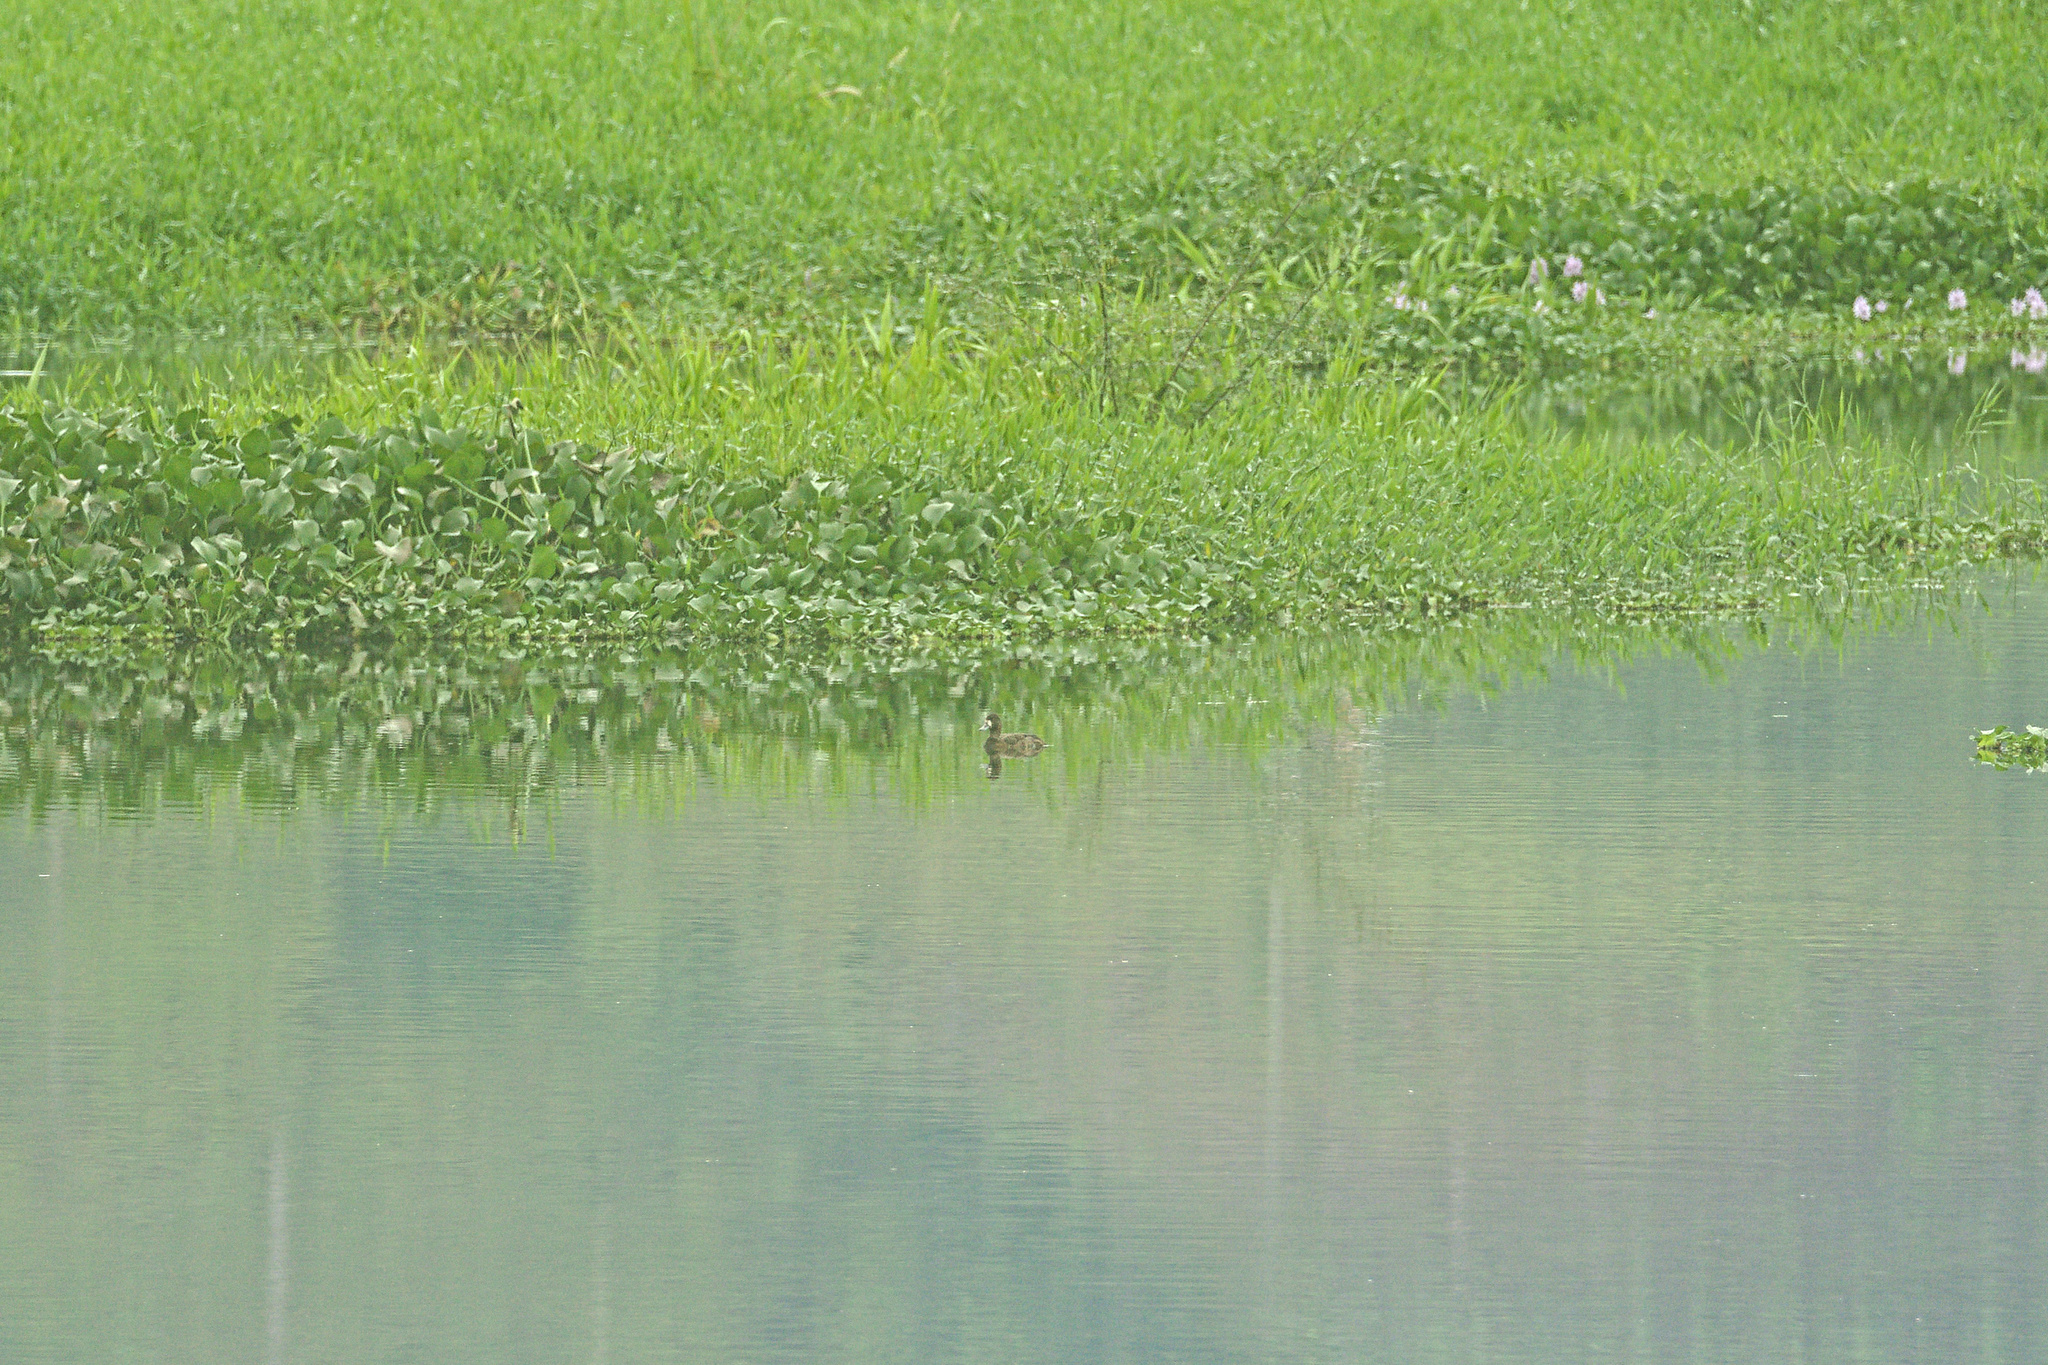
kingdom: Animalia
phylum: Chordata
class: Aves
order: Anseriformes
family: Anatidae
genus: Aythya
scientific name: Aythya affinis
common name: Lesser scaup
